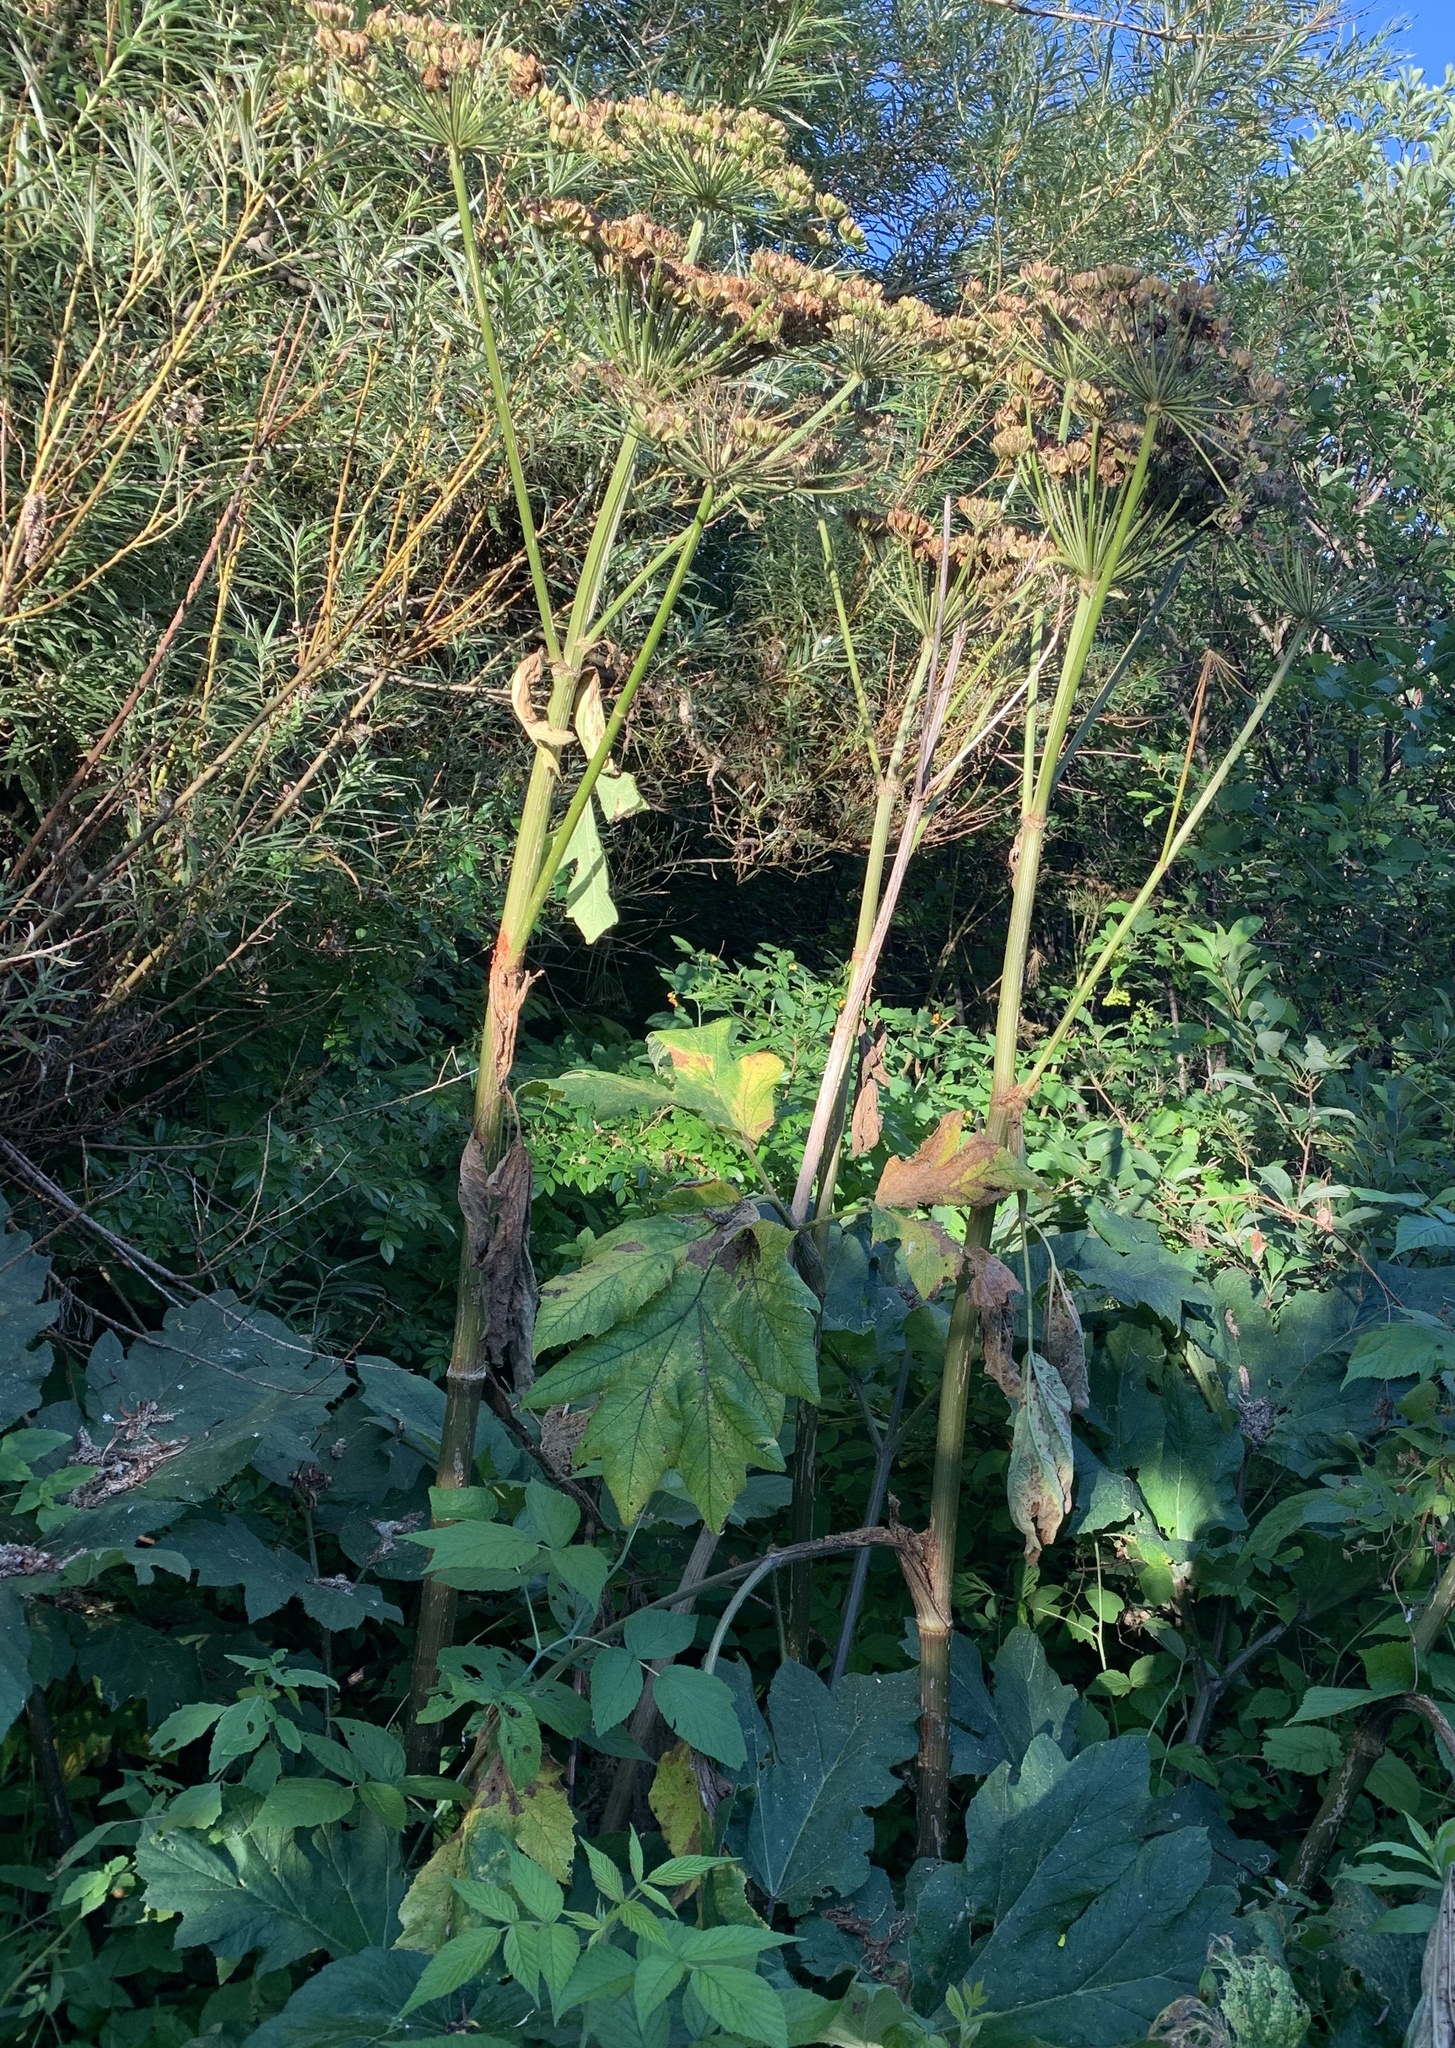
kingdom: Plantae
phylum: Tracheophyta
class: Magnoliopsida
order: Apiales
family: Apiaceae
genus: Heracleum
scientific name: Heracleum maximum
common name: American cow parsnip
